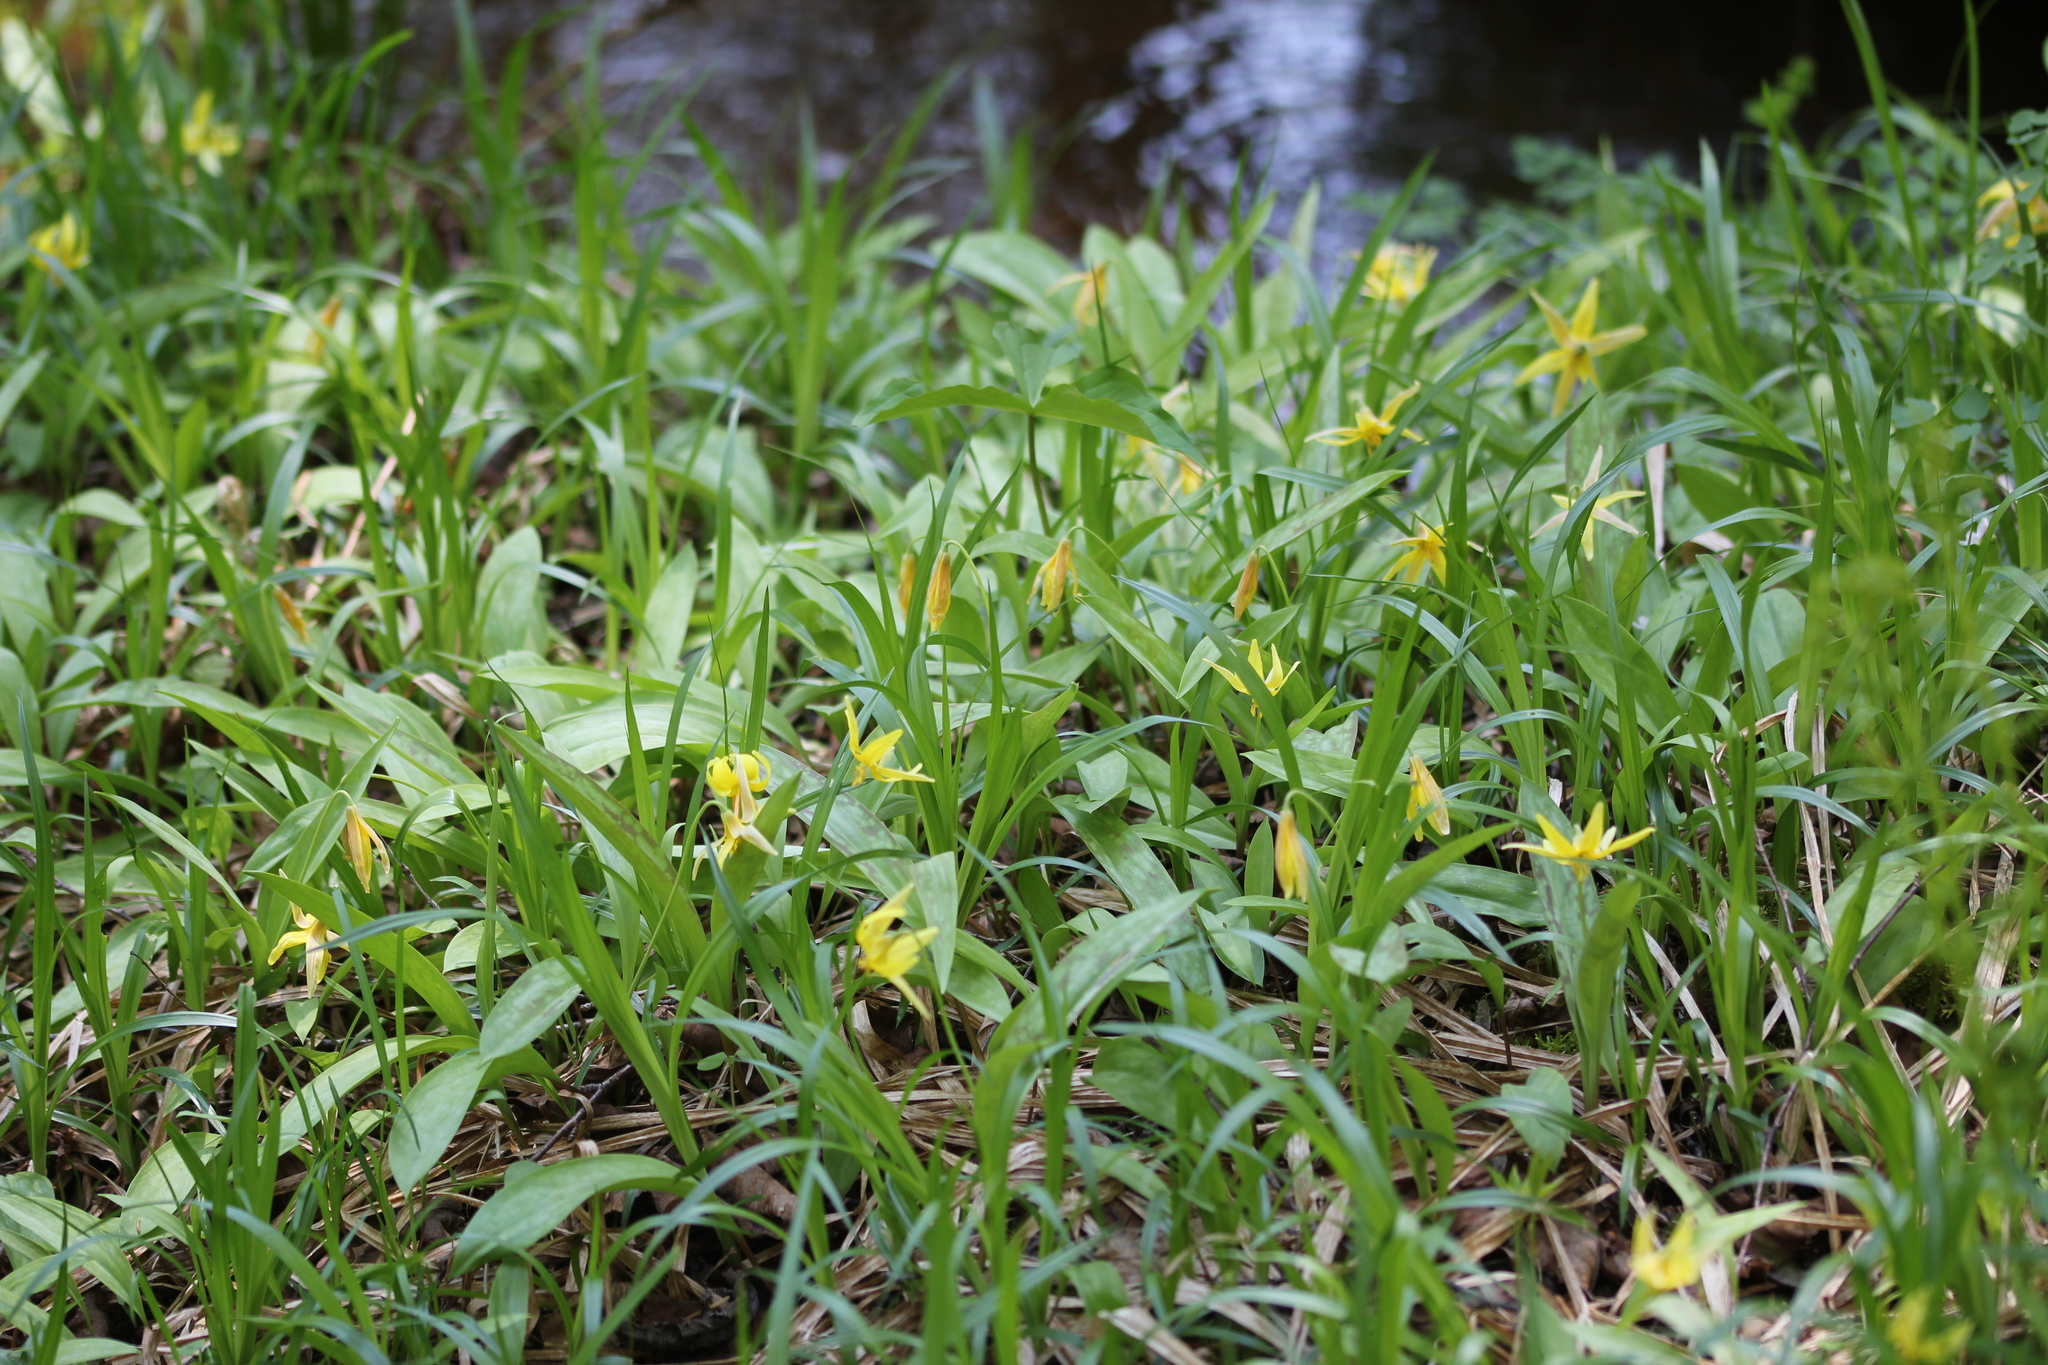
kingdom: Plantae
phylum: Tracheophyta
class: Liliopsida
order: Liliales
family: Liliaceae
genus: Erythronium
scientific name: Erythronium americanum
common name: Yellow adder's-tongue
